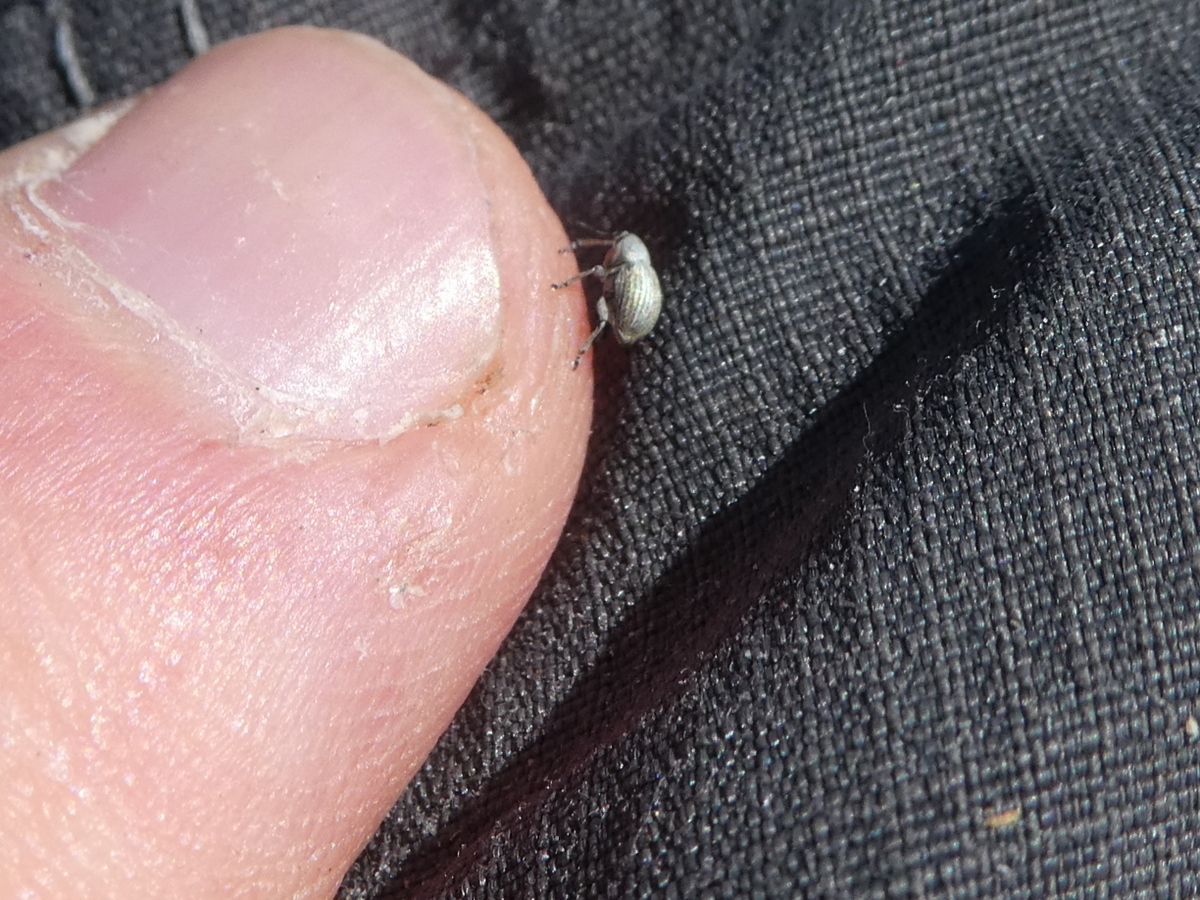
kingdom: Animalia
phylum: Arthropoda
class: Insecta
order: Coleoptera
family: Brentidae
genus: Exapion
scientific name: Exapion ulicis
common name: Gorse seed weevil
